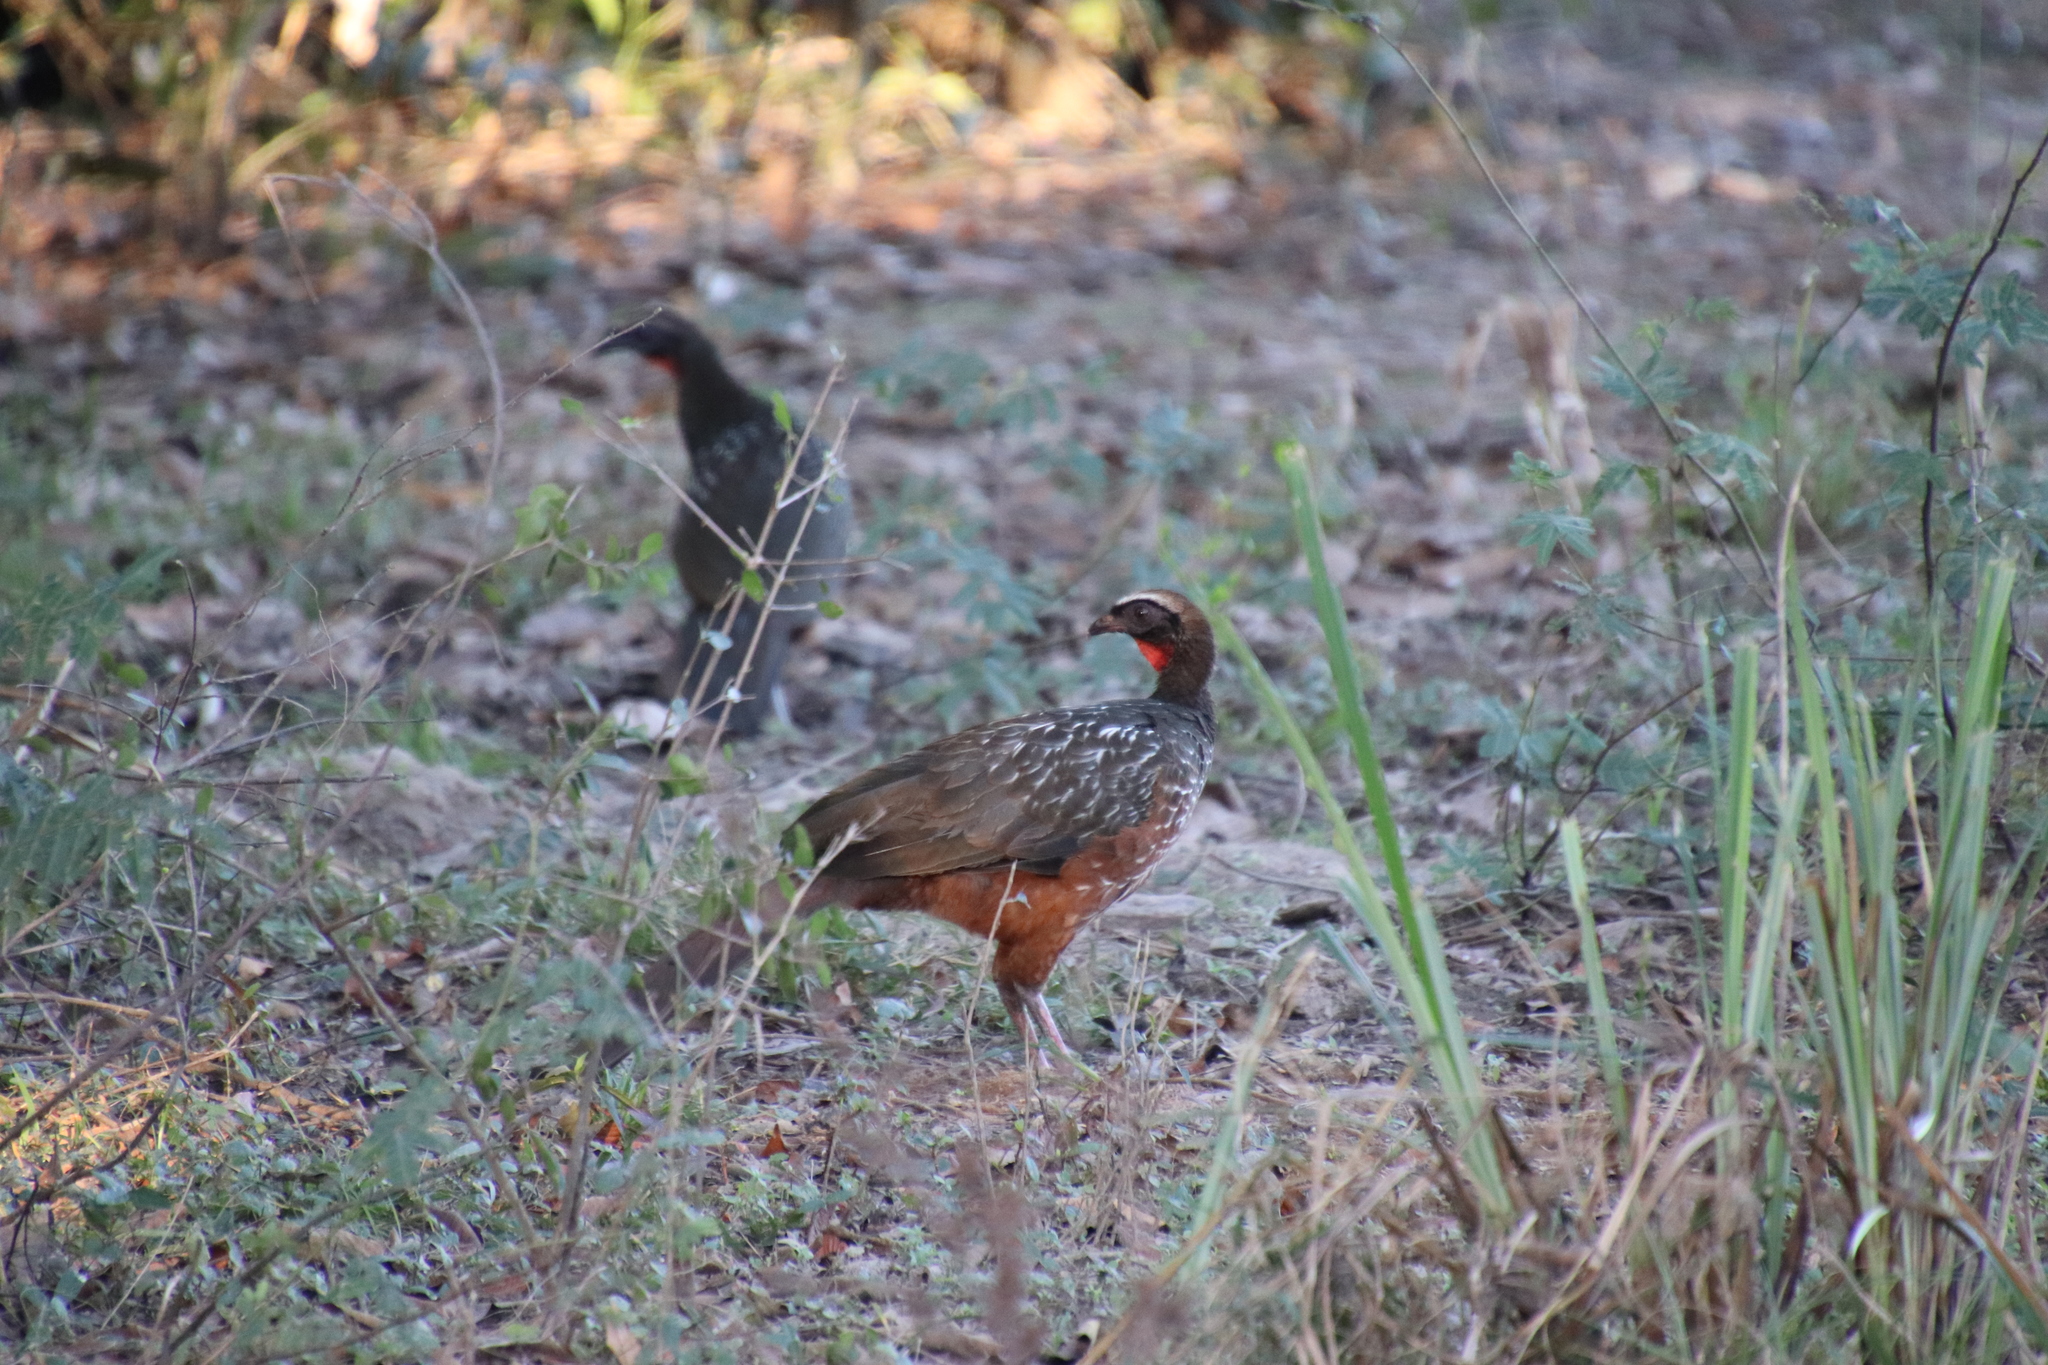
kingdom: Animalia
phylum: Chordata
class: Aves
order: Galliformes
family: Cracidae
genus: Penelope
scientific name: Penelope ochrogaster
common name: Chestnut-bellied guan
